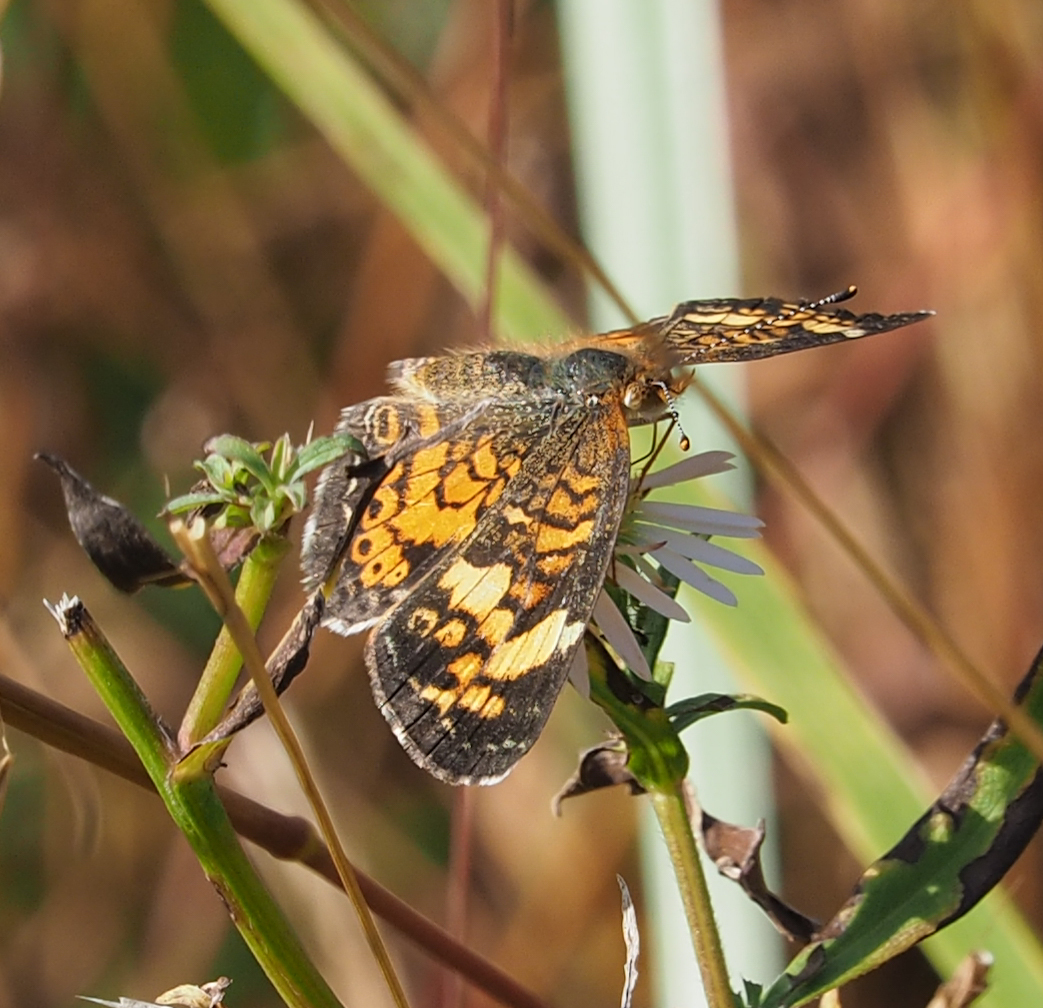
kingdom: Animalia
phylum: Arthropoda
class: Insecta
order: Lepidoptera
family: Nymphalidae
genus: Phyciodes
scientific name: Phyciodes tharos
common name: Pearl crescent
